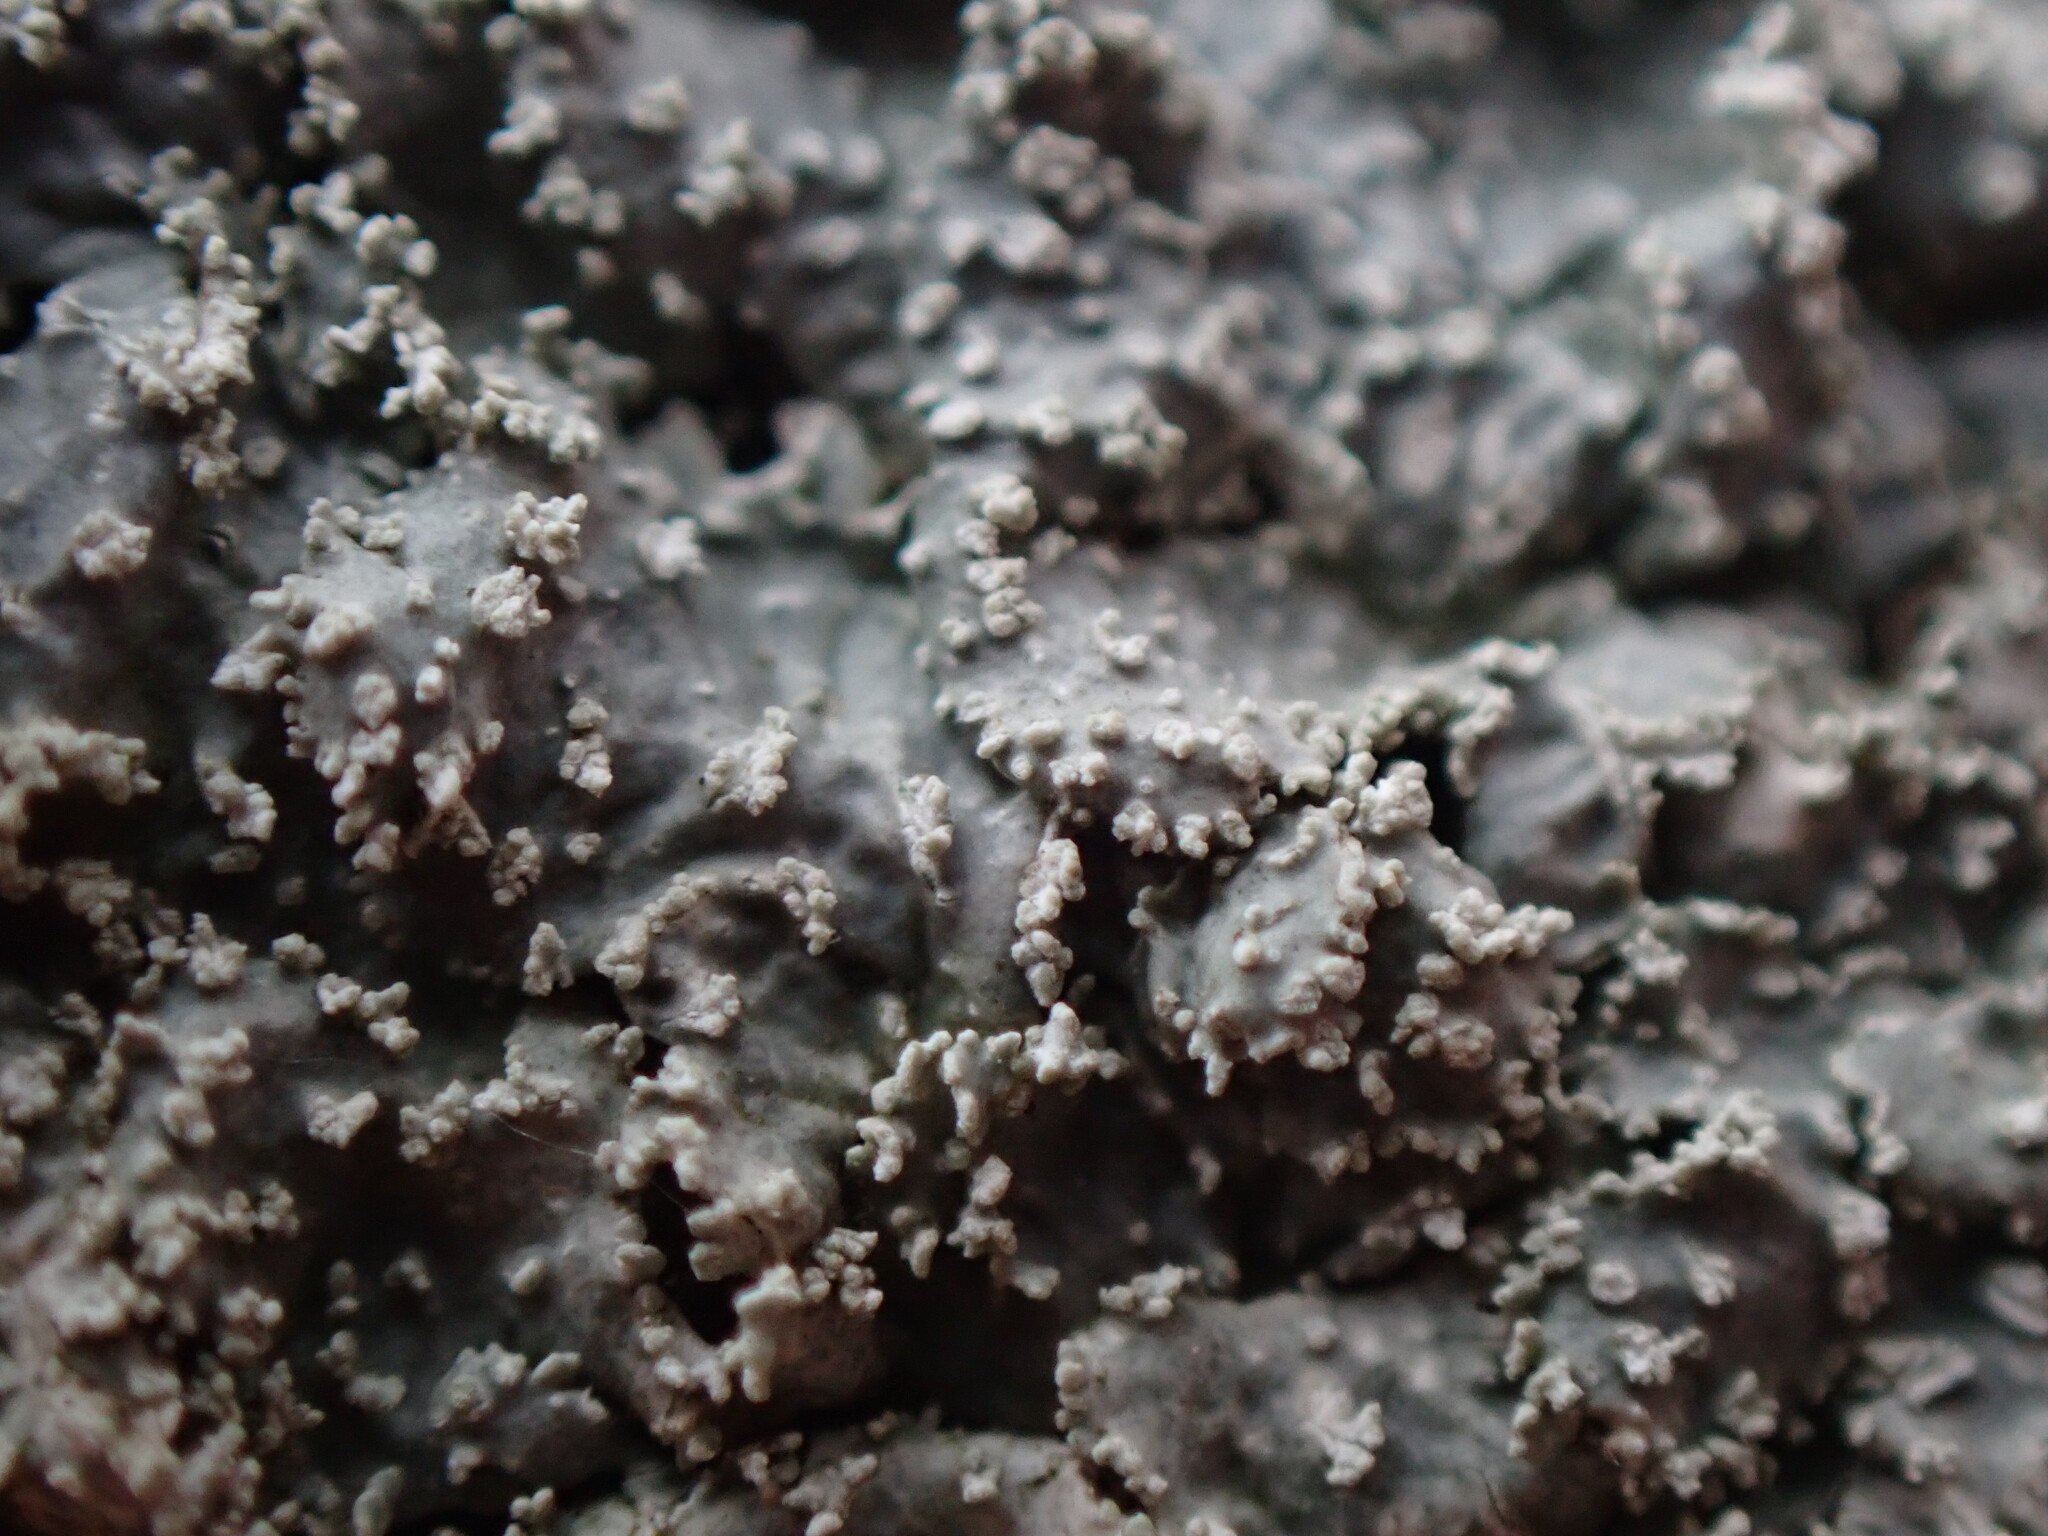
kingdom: Fungi
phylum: Ascomycota
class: Lecanoromycetes
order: Lecanorales
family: Parmeliaceae
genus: Punctelia
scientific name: Punctelia missouriensis
